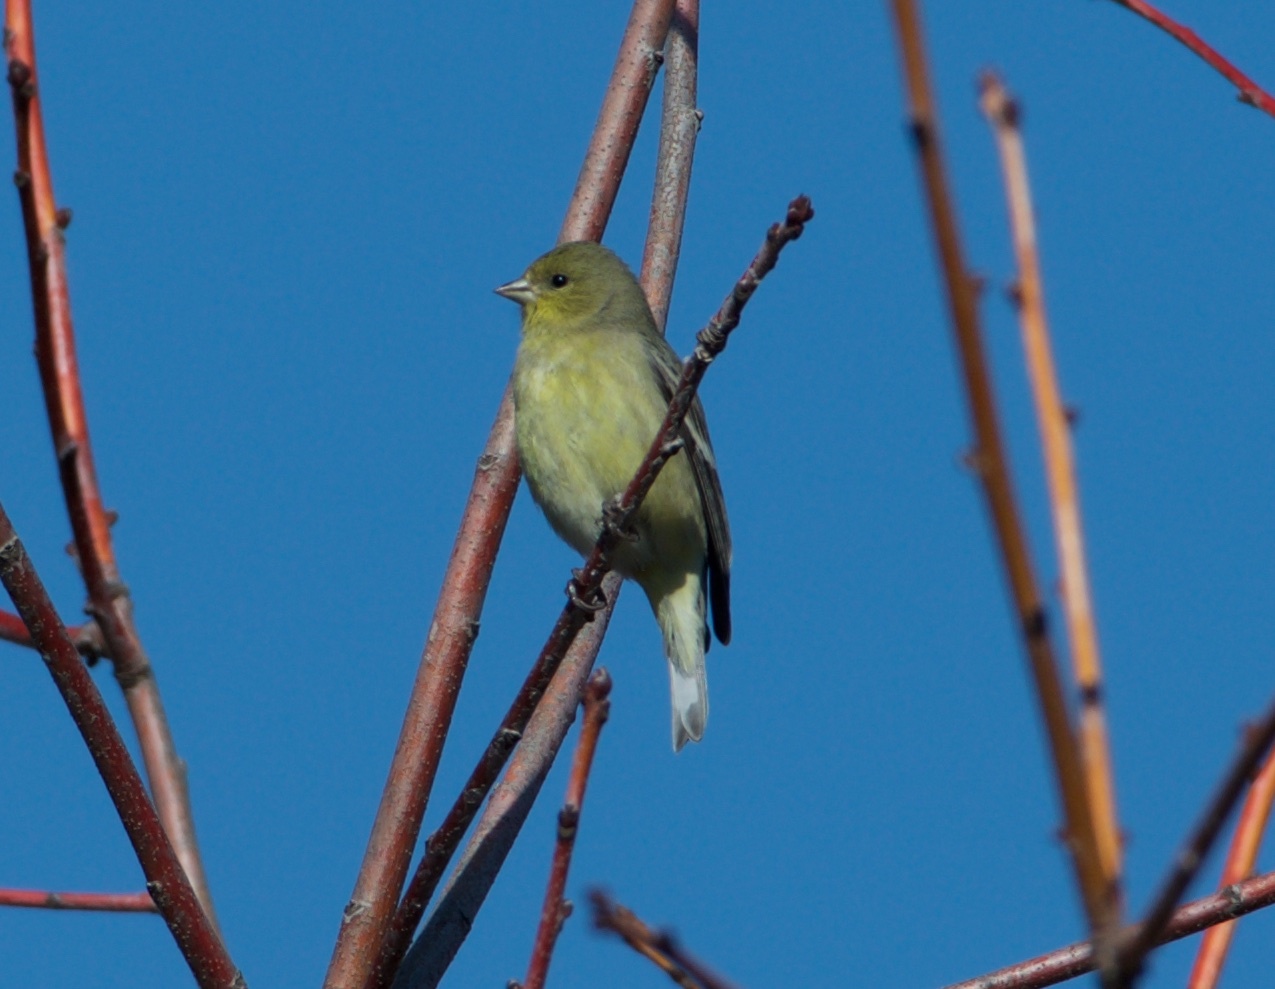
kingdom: Animalia
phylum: Chordata
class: Aves
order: Passeriformes
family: Fringillidae
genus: Spinus
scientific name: Spinus psaltria
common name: Lesser goldfinch
